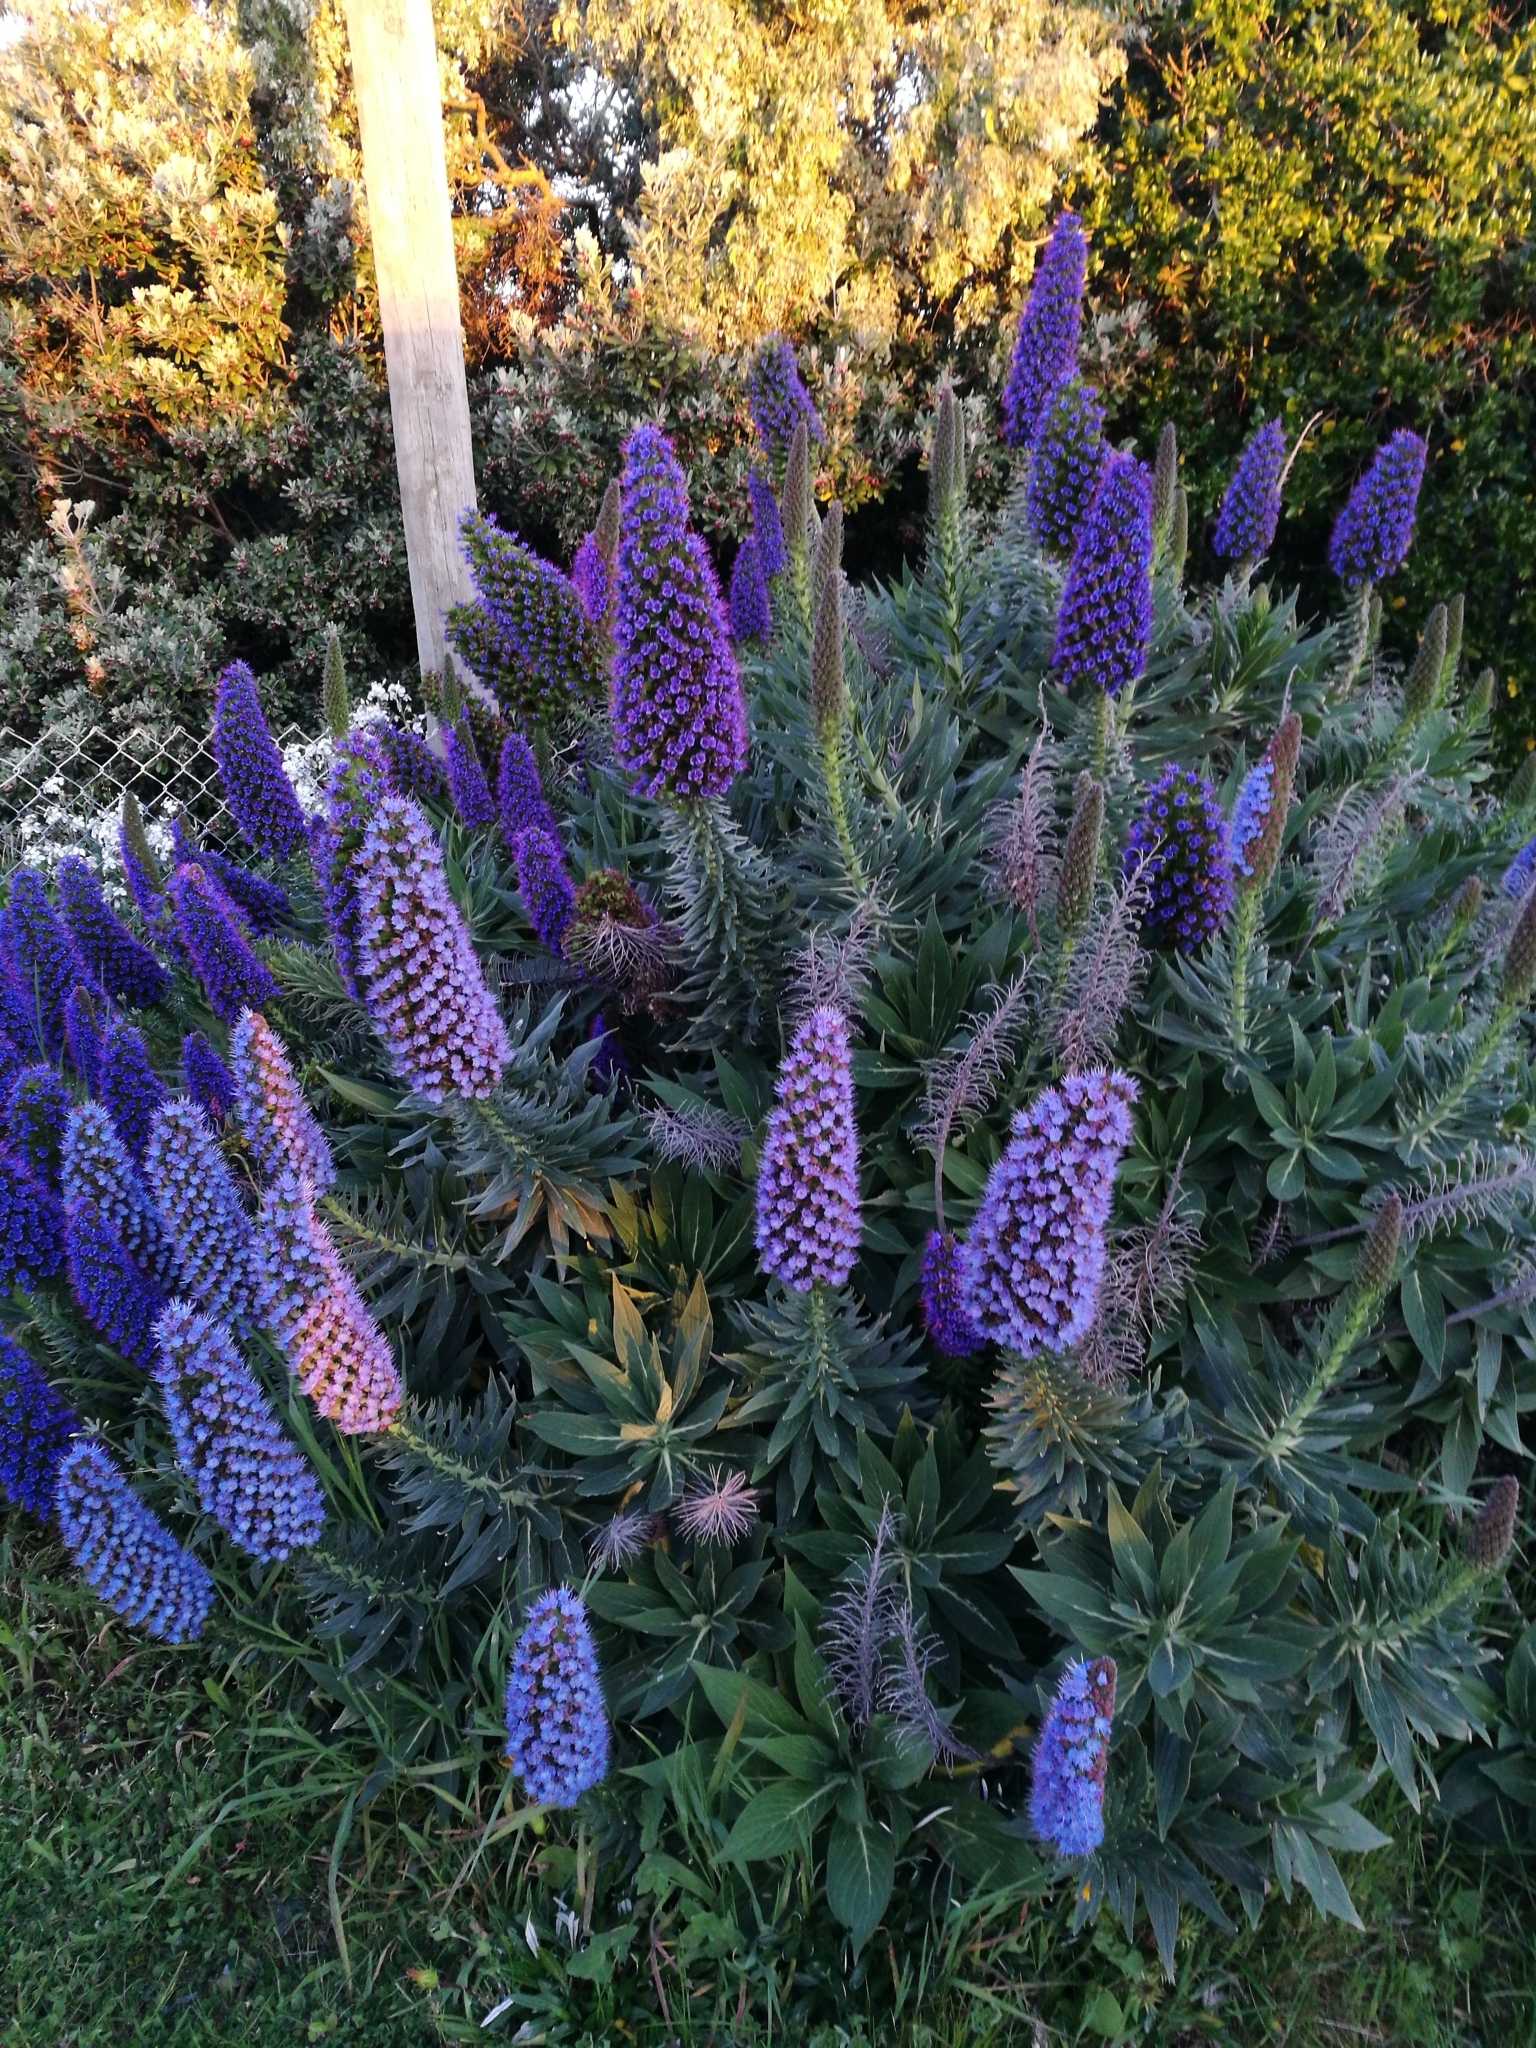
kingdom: Plantae
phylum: Tracheophyta
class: Magnoliopsida
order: Boraginales
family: Boraginaceae
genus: Echium
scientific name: Echium candicans
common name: Pride of madeira
